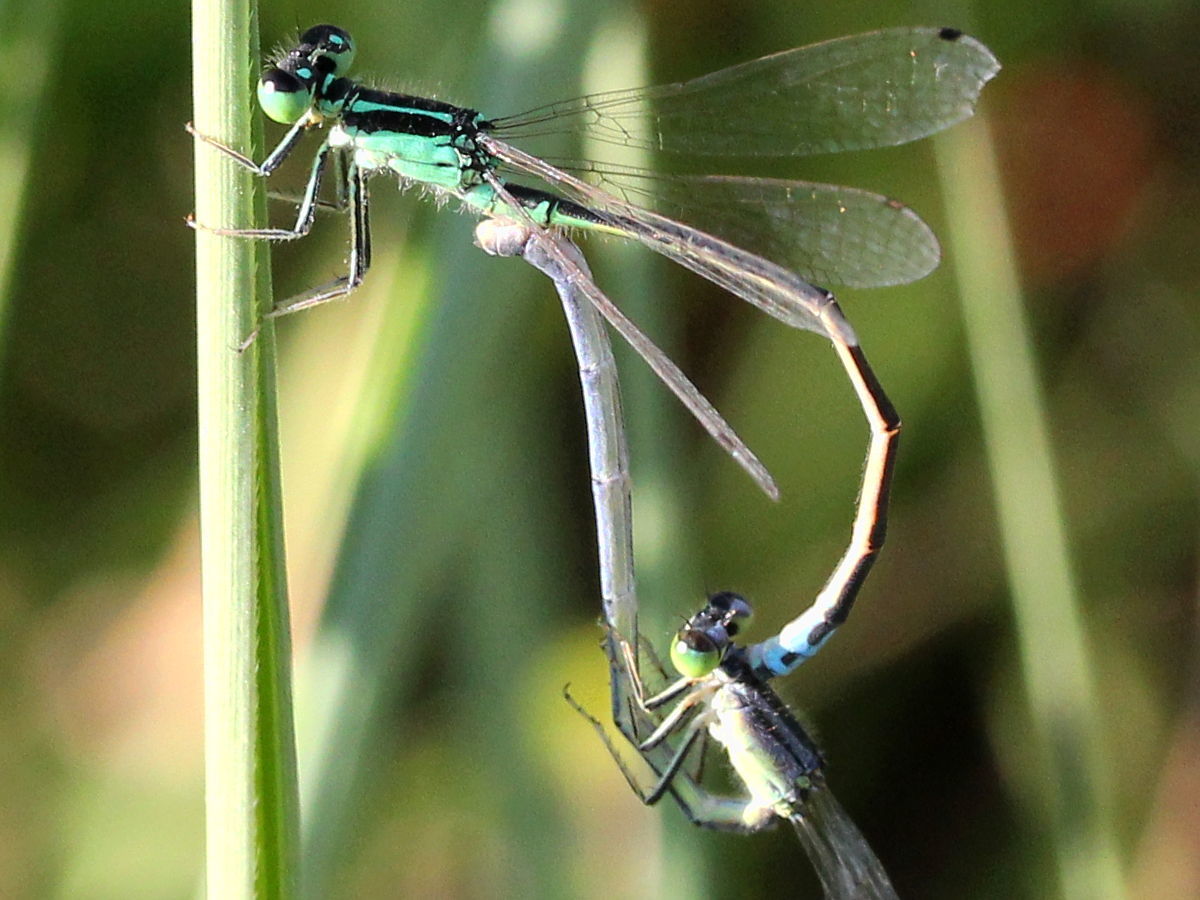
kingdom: Animalia
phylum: Arthropoda
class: Insecta
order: Odonata
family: Coenagrionidae
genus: Ischnura
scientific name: Ischnura verticalis
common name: Eastern forktail
